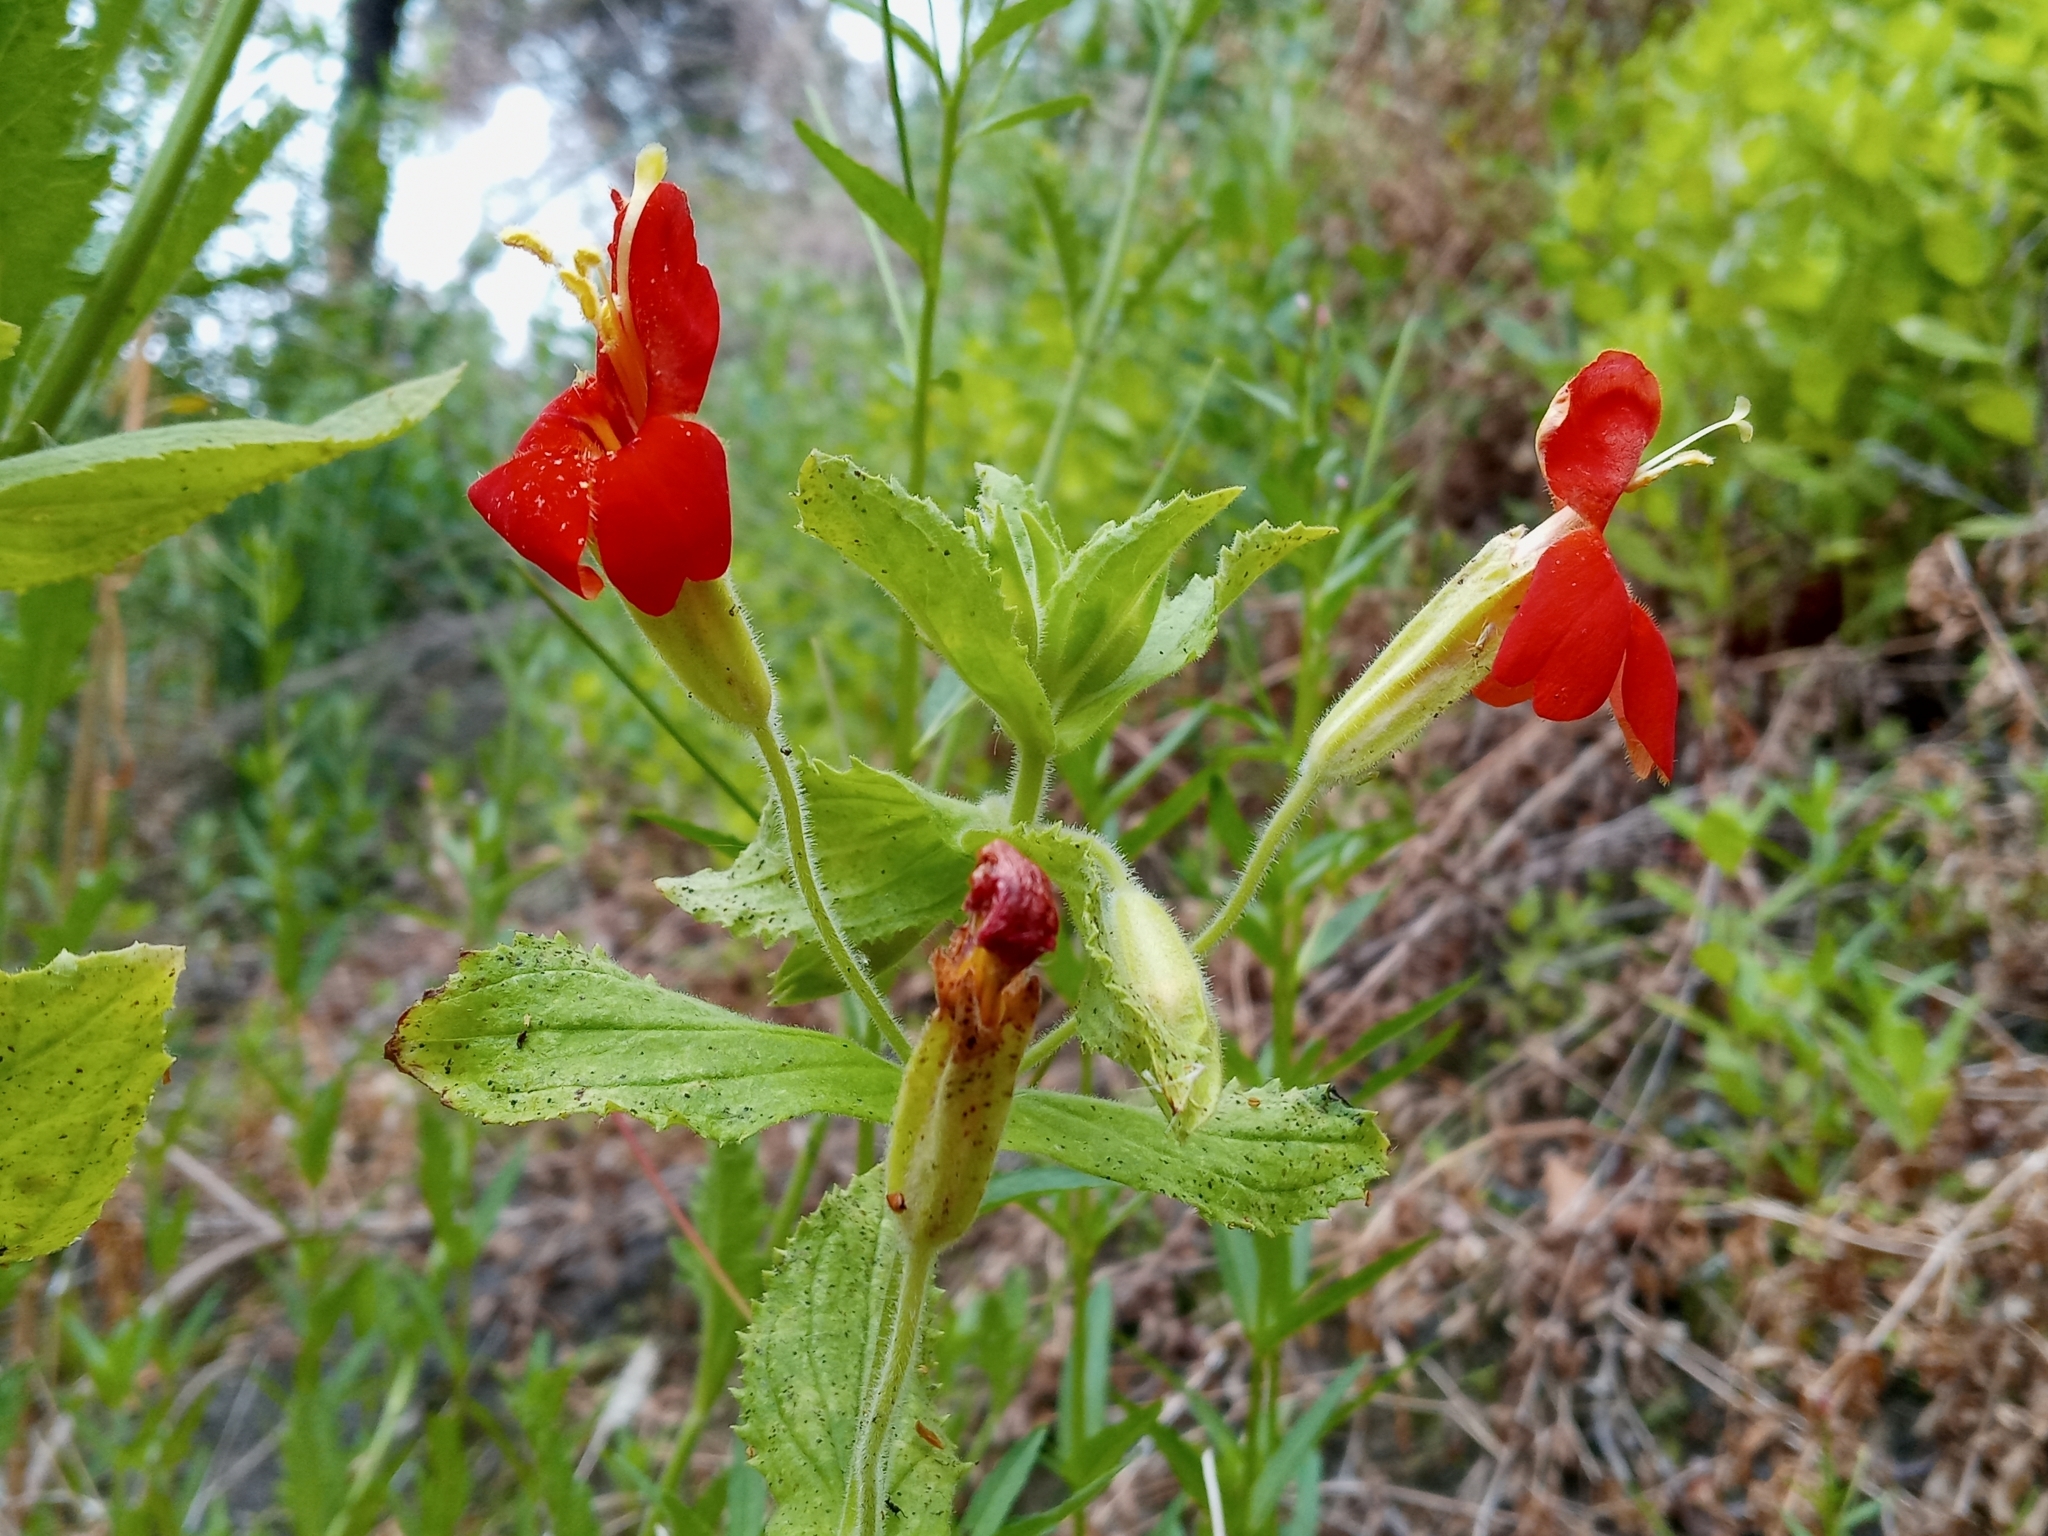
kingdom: Plantae
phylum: Tracheophyta
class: Magnoliopsida
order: Lamiales
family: Phrymaceae
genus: Erythranthe
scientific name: Erythranthe cardinalis
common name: Scarlet monkey-flower
